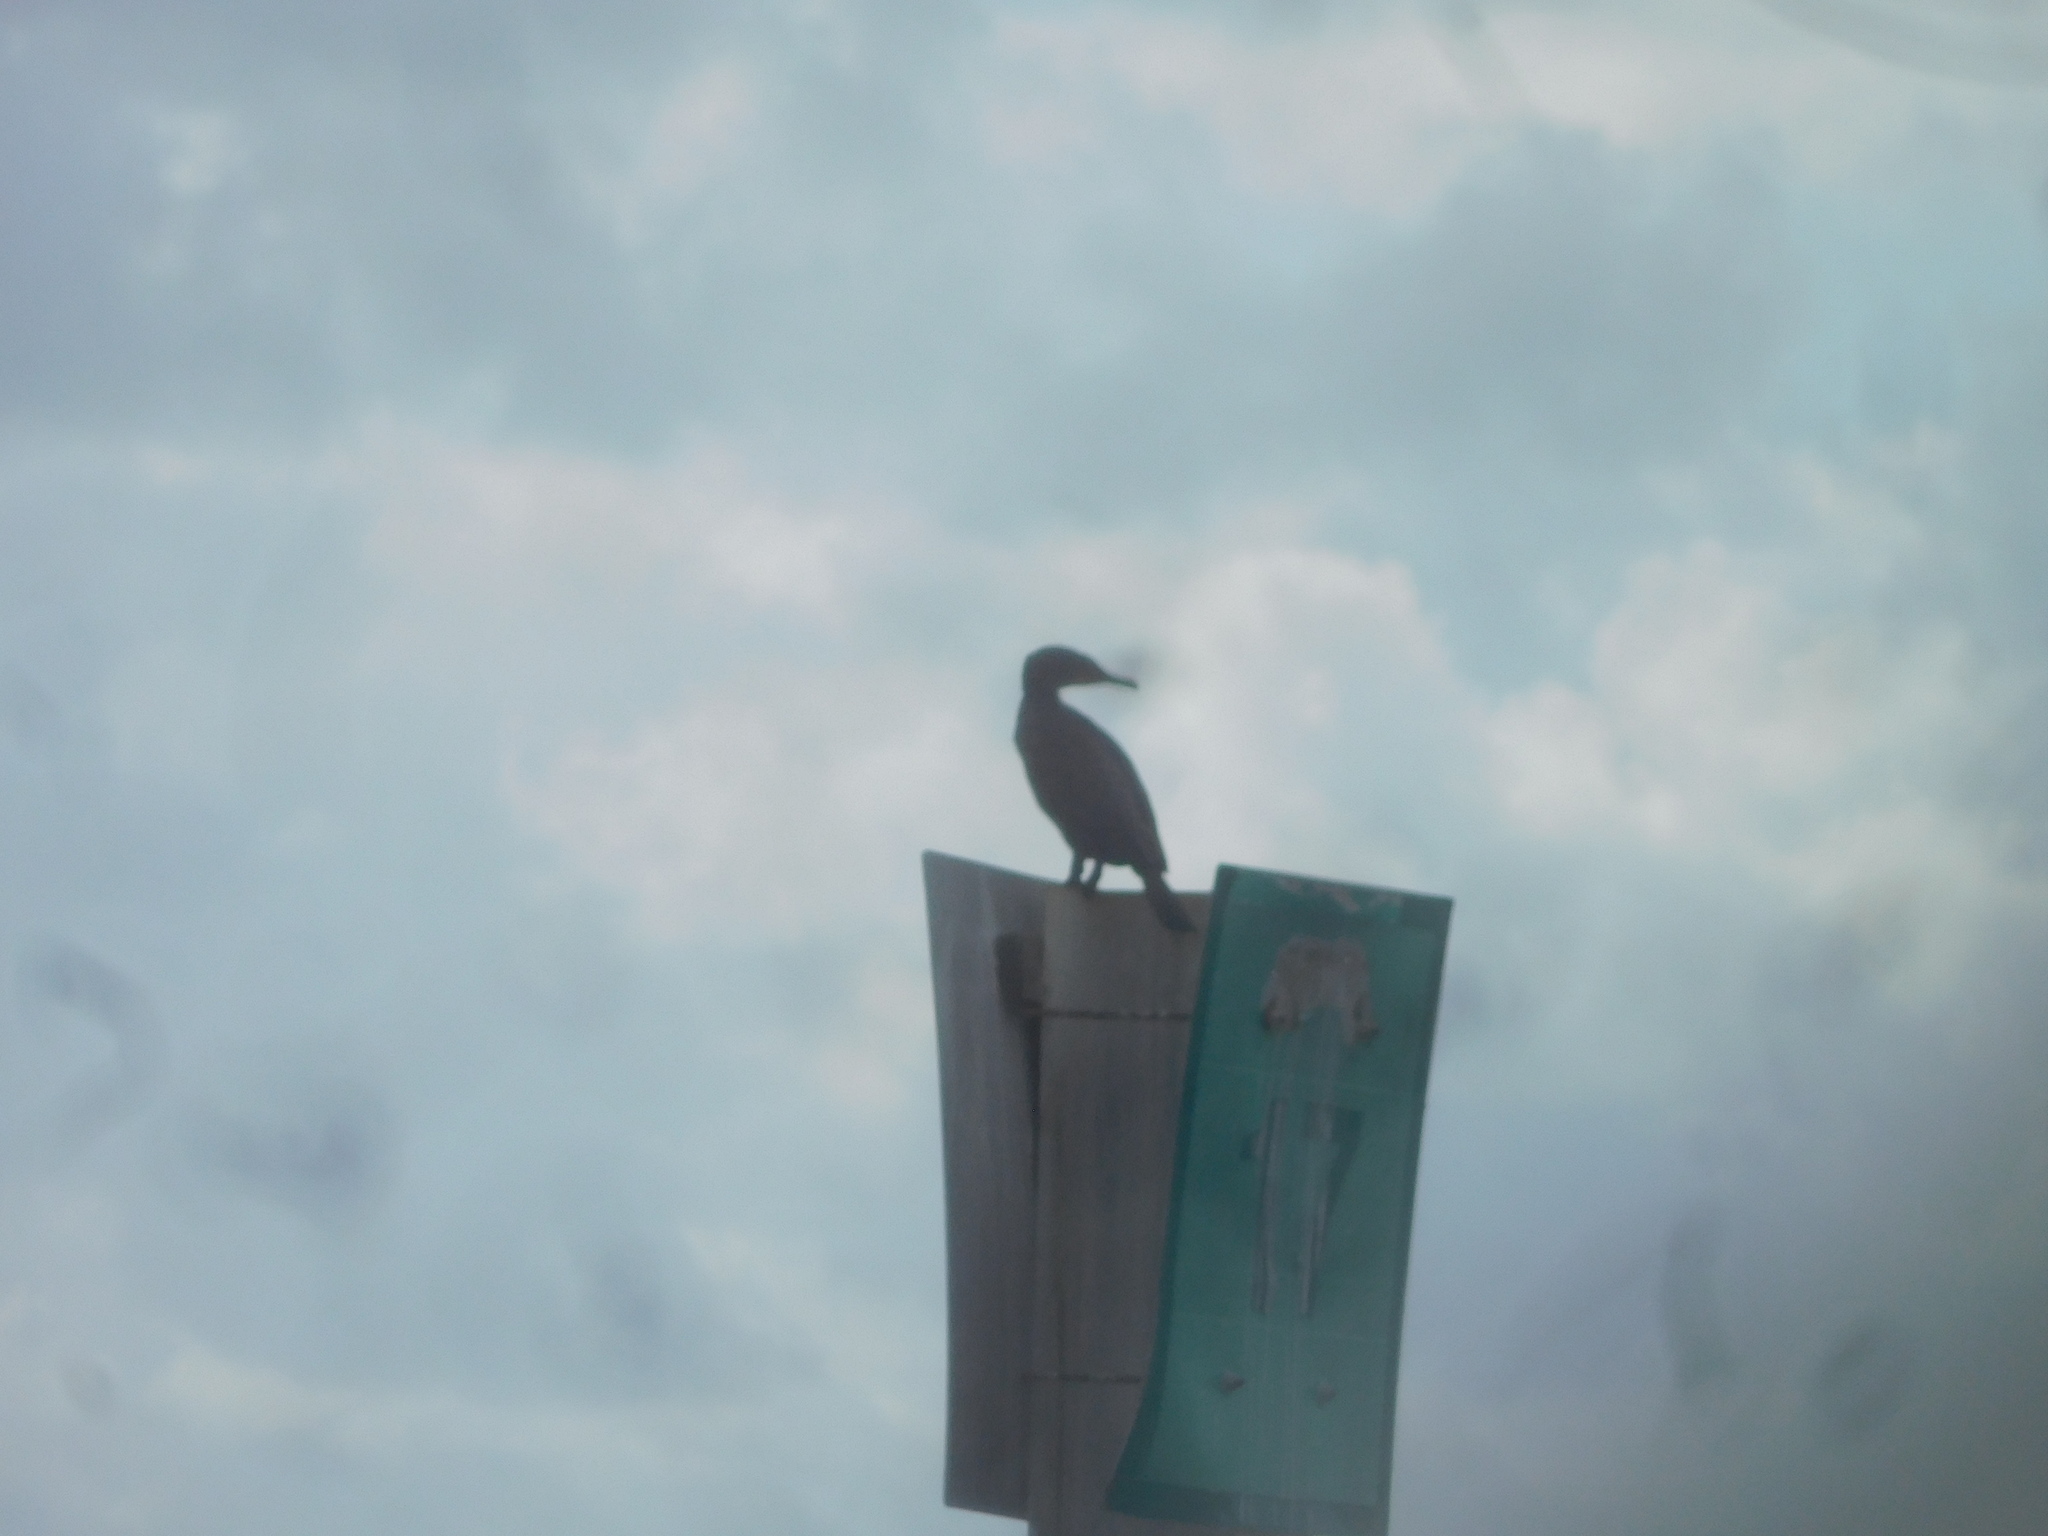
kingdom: Animalia
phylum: Chordata
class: Aves
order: Suliformes
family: Phalacrocoracidae
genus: Phalacrocorax
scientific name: Phalacrocorax auritus
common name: Double-crested cormorant
